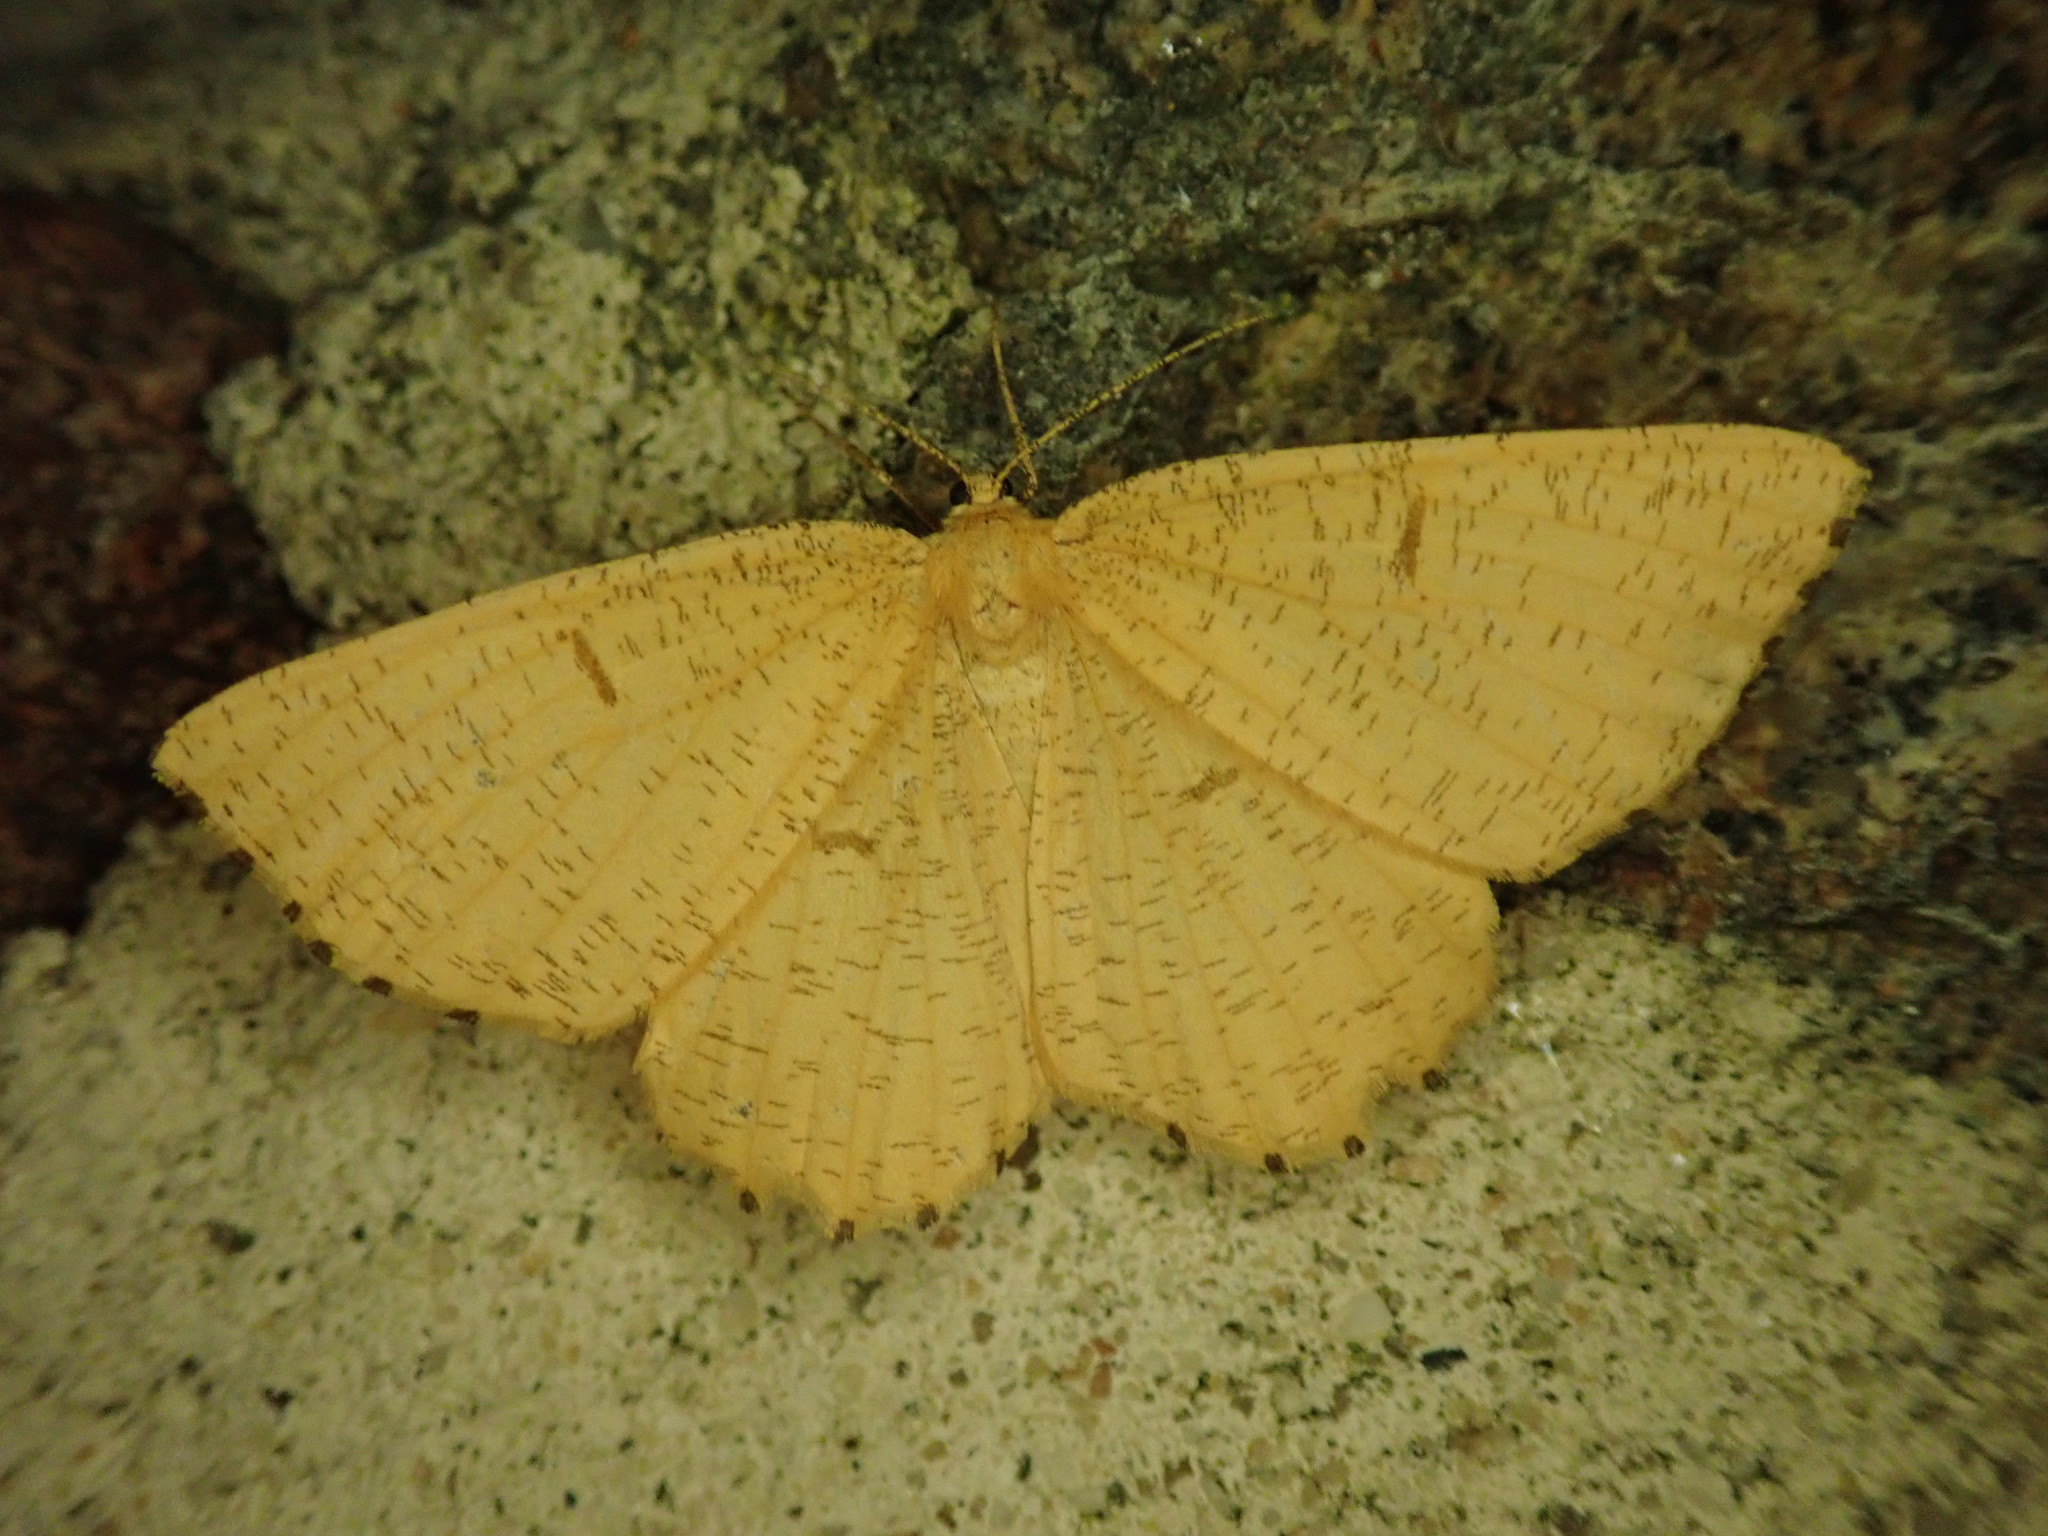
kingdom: Animalia
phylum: Arthropoda
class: Insecta
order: Lepidoptera
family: Geometridae
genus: Angerona
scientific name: Angerona prunaria
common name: Orange moth
